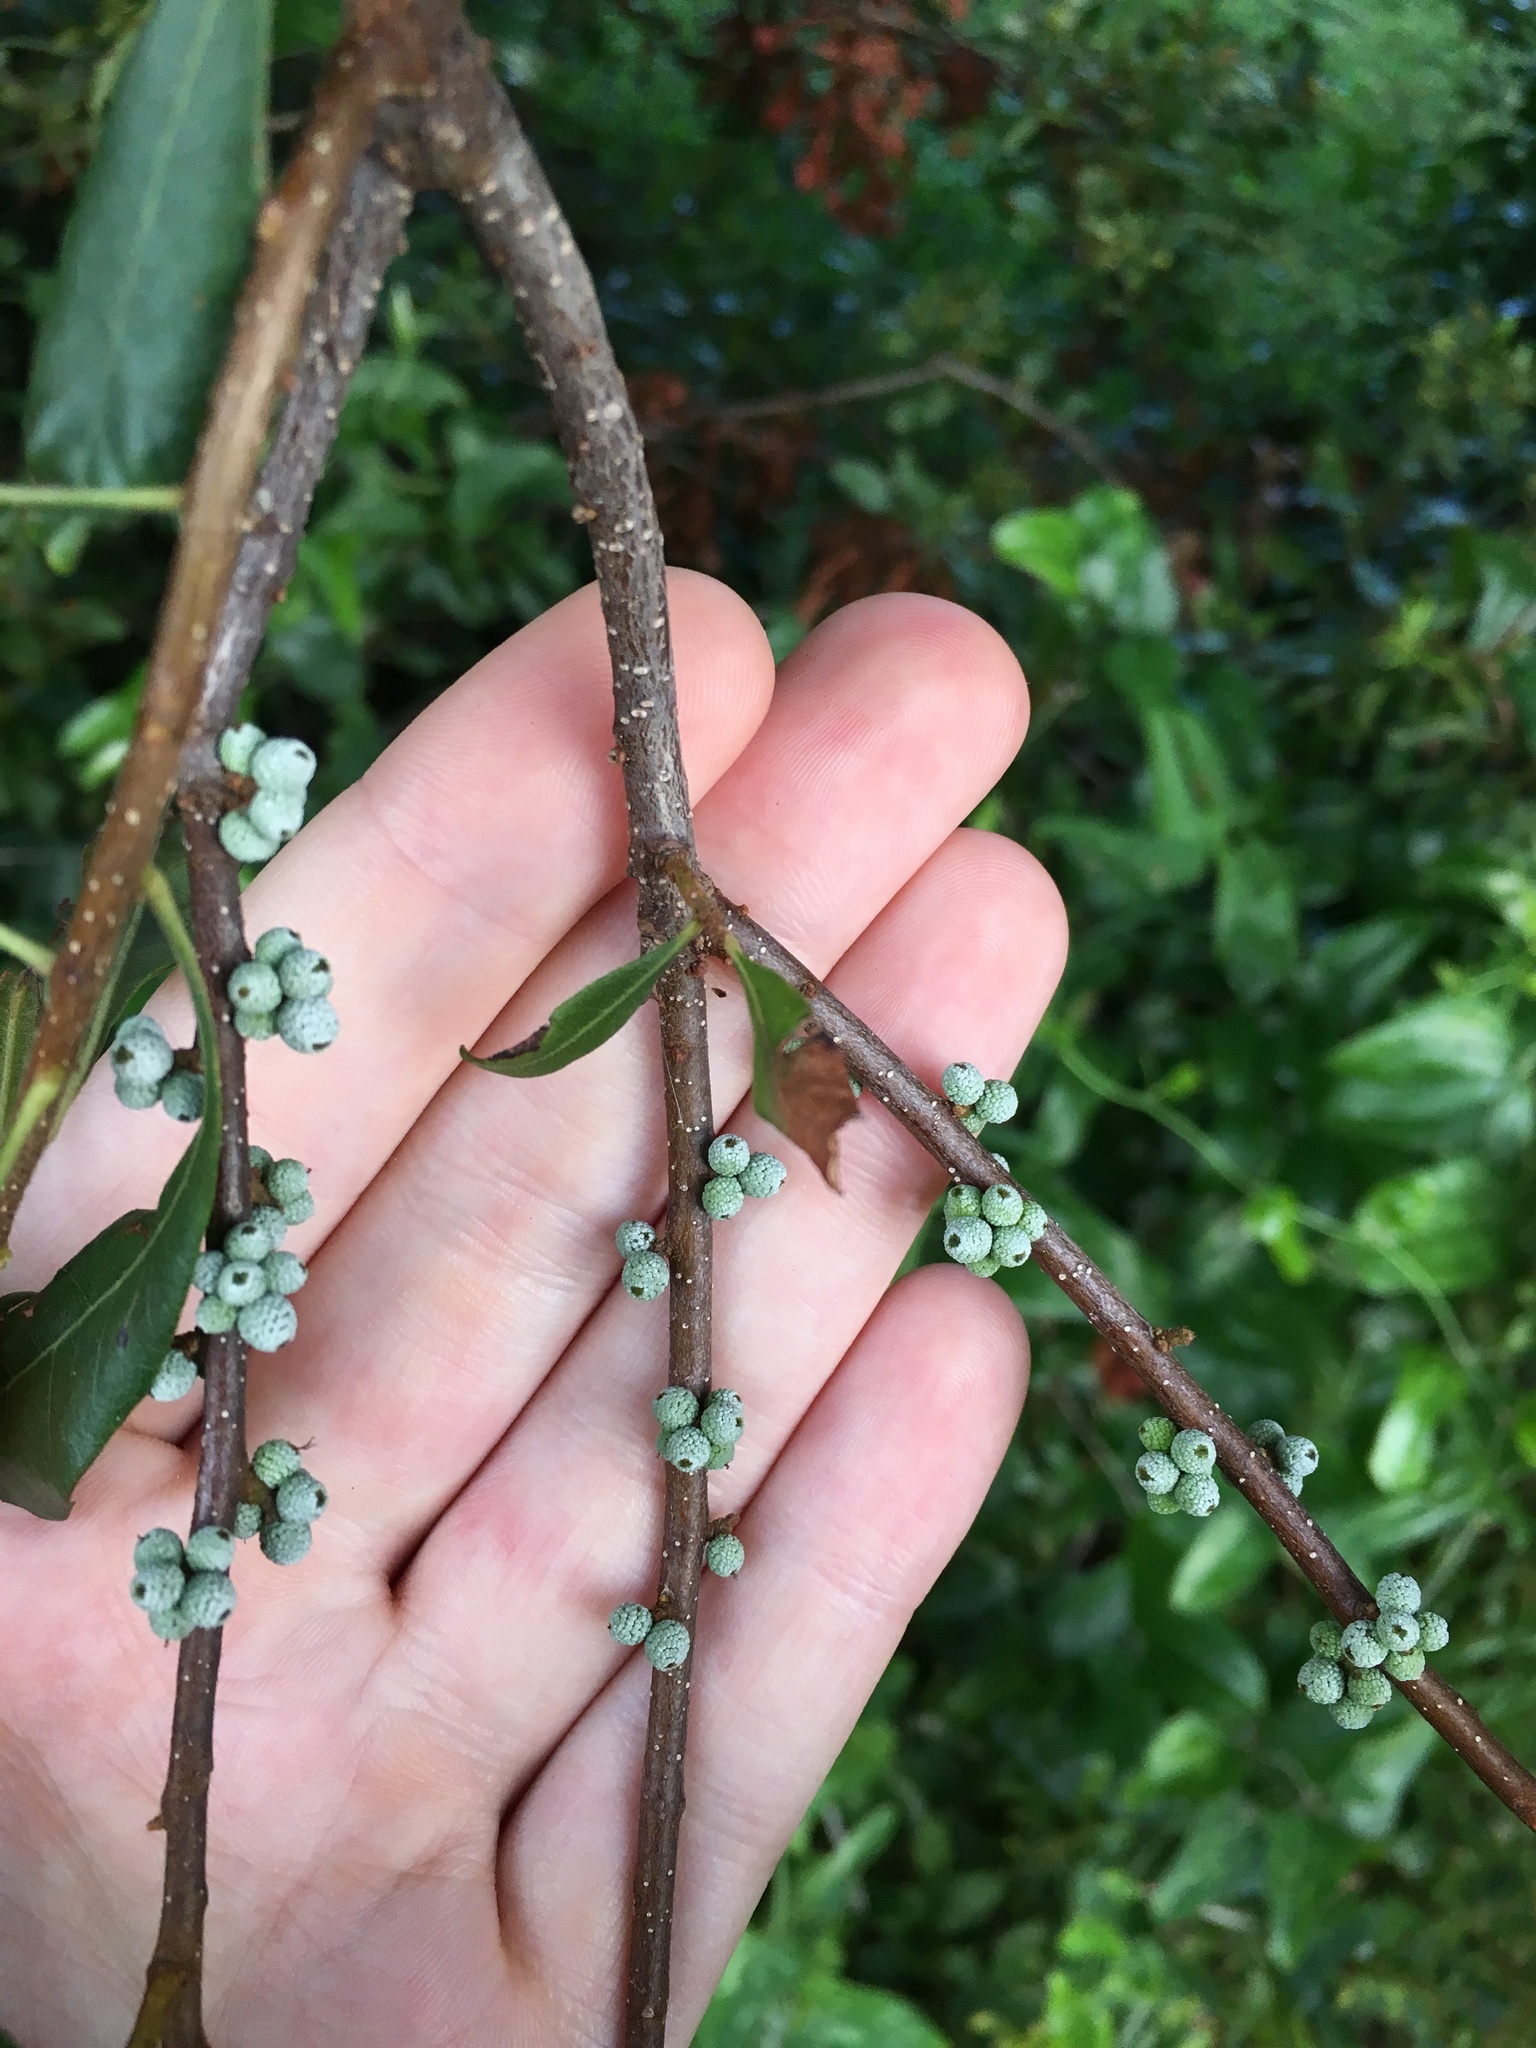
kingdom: Plantae
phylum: Tracheophyta
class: Magnoliopsida
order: Fagales
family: Myricaceae
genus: Morella
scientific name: Morella cerifera
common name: Wax myrtle
